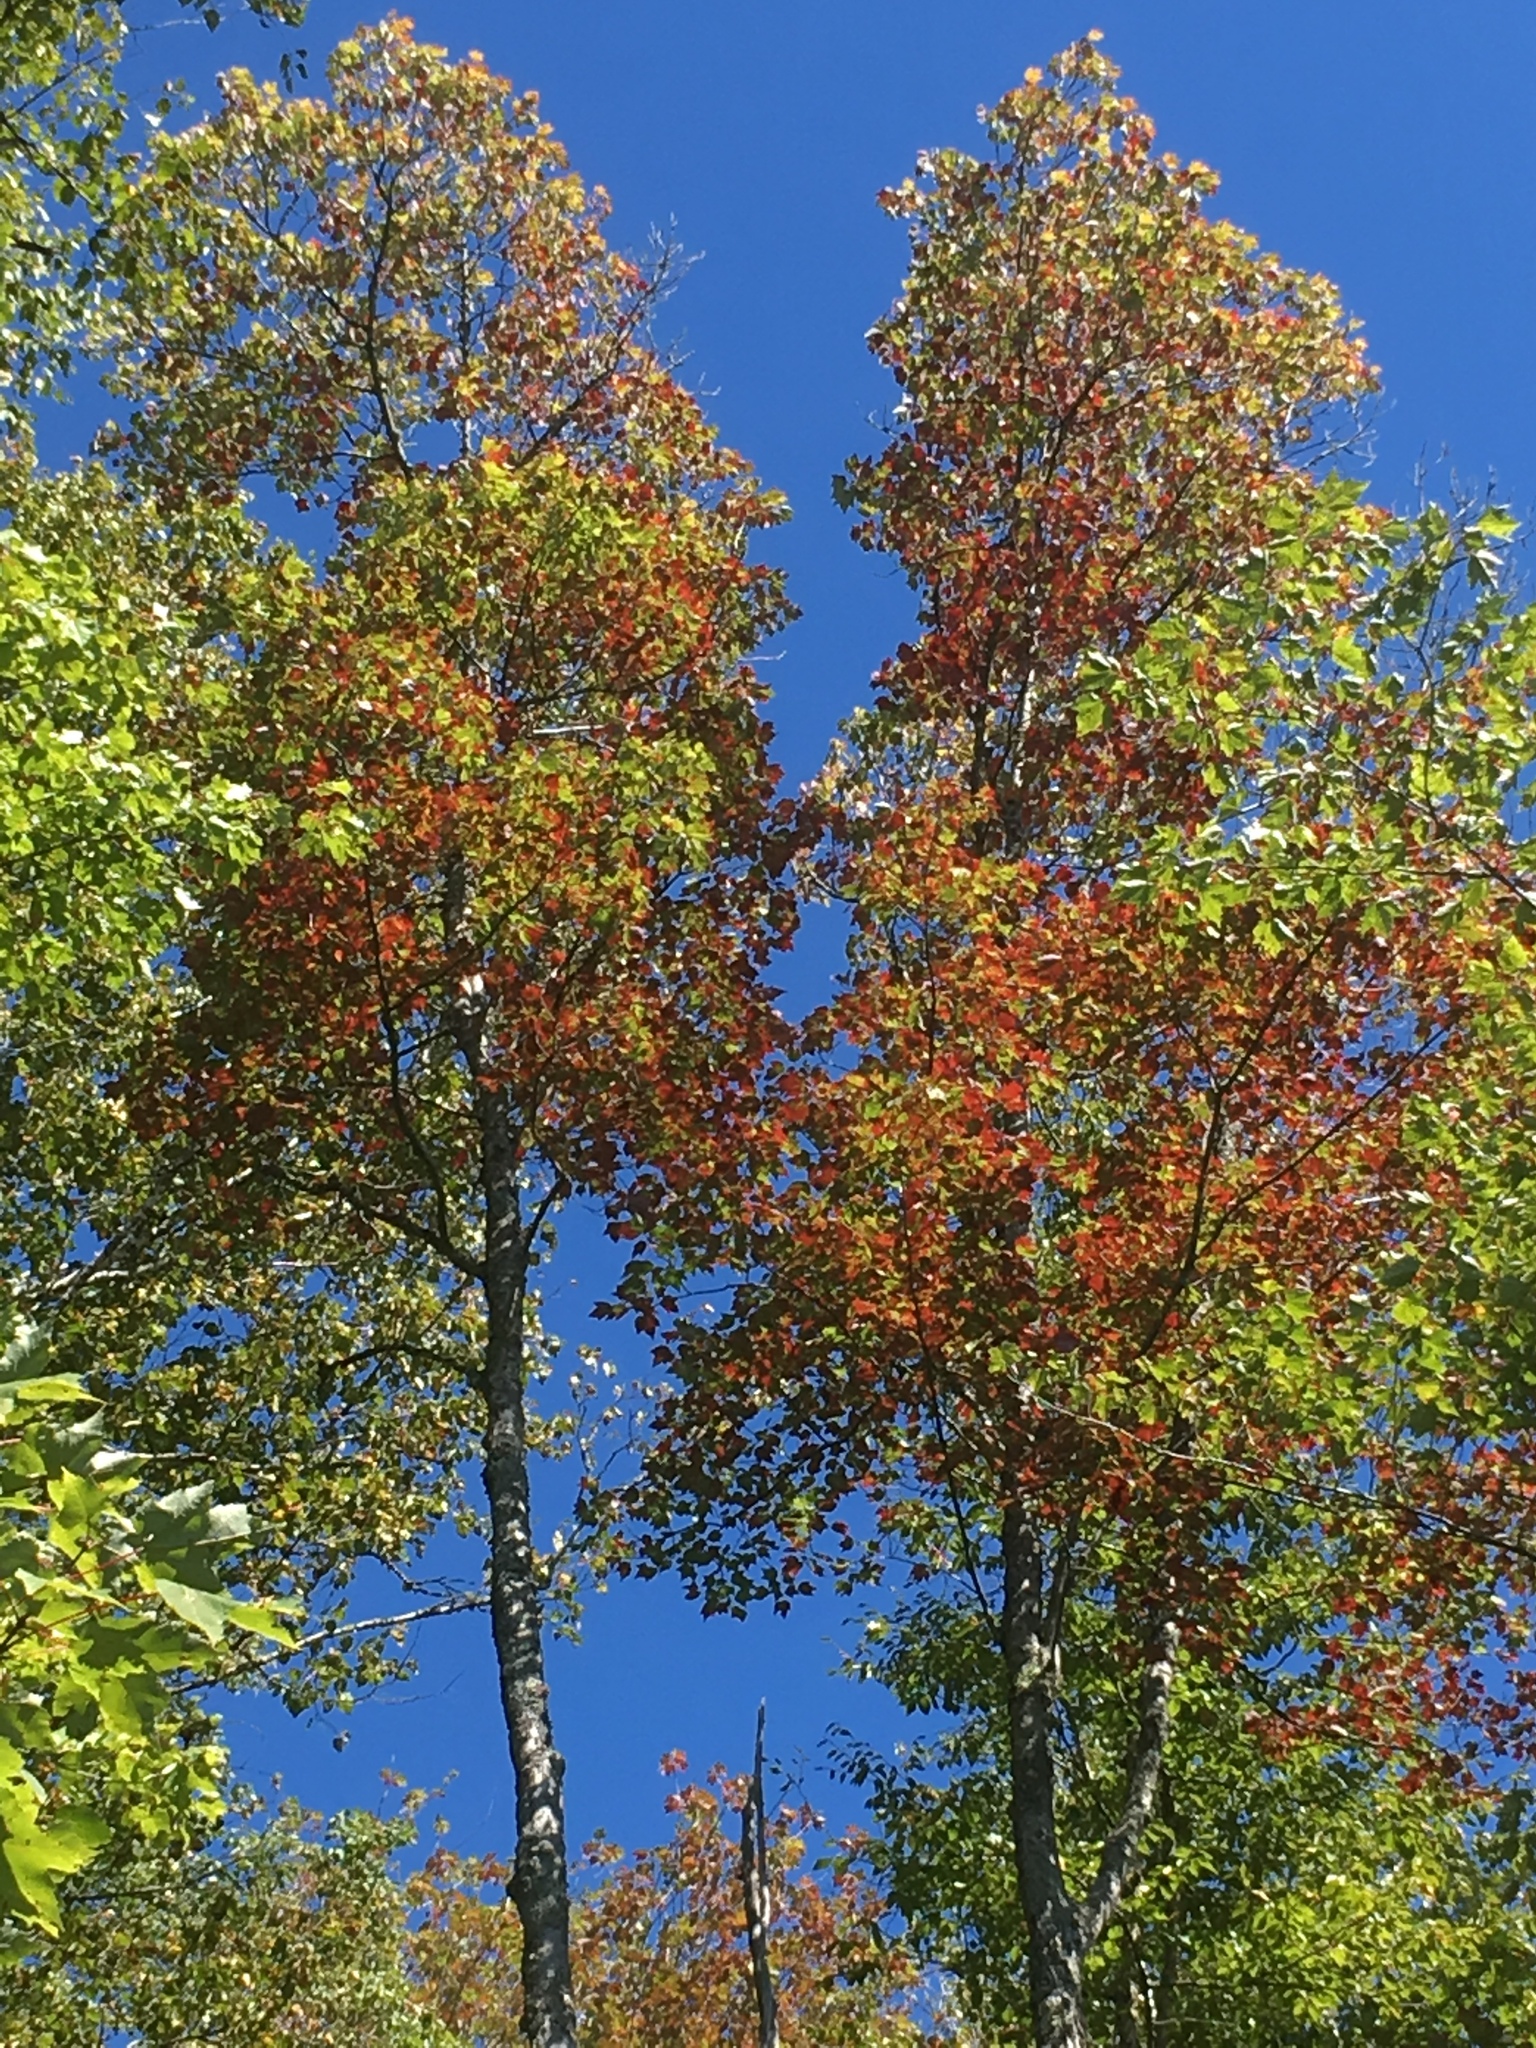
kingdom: Plantae
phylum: Tracheophyta
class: Magnoliopsida
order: Sapindales
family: Sapindaceae
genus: Acer
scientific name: Acer rubrum
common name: Red maple
